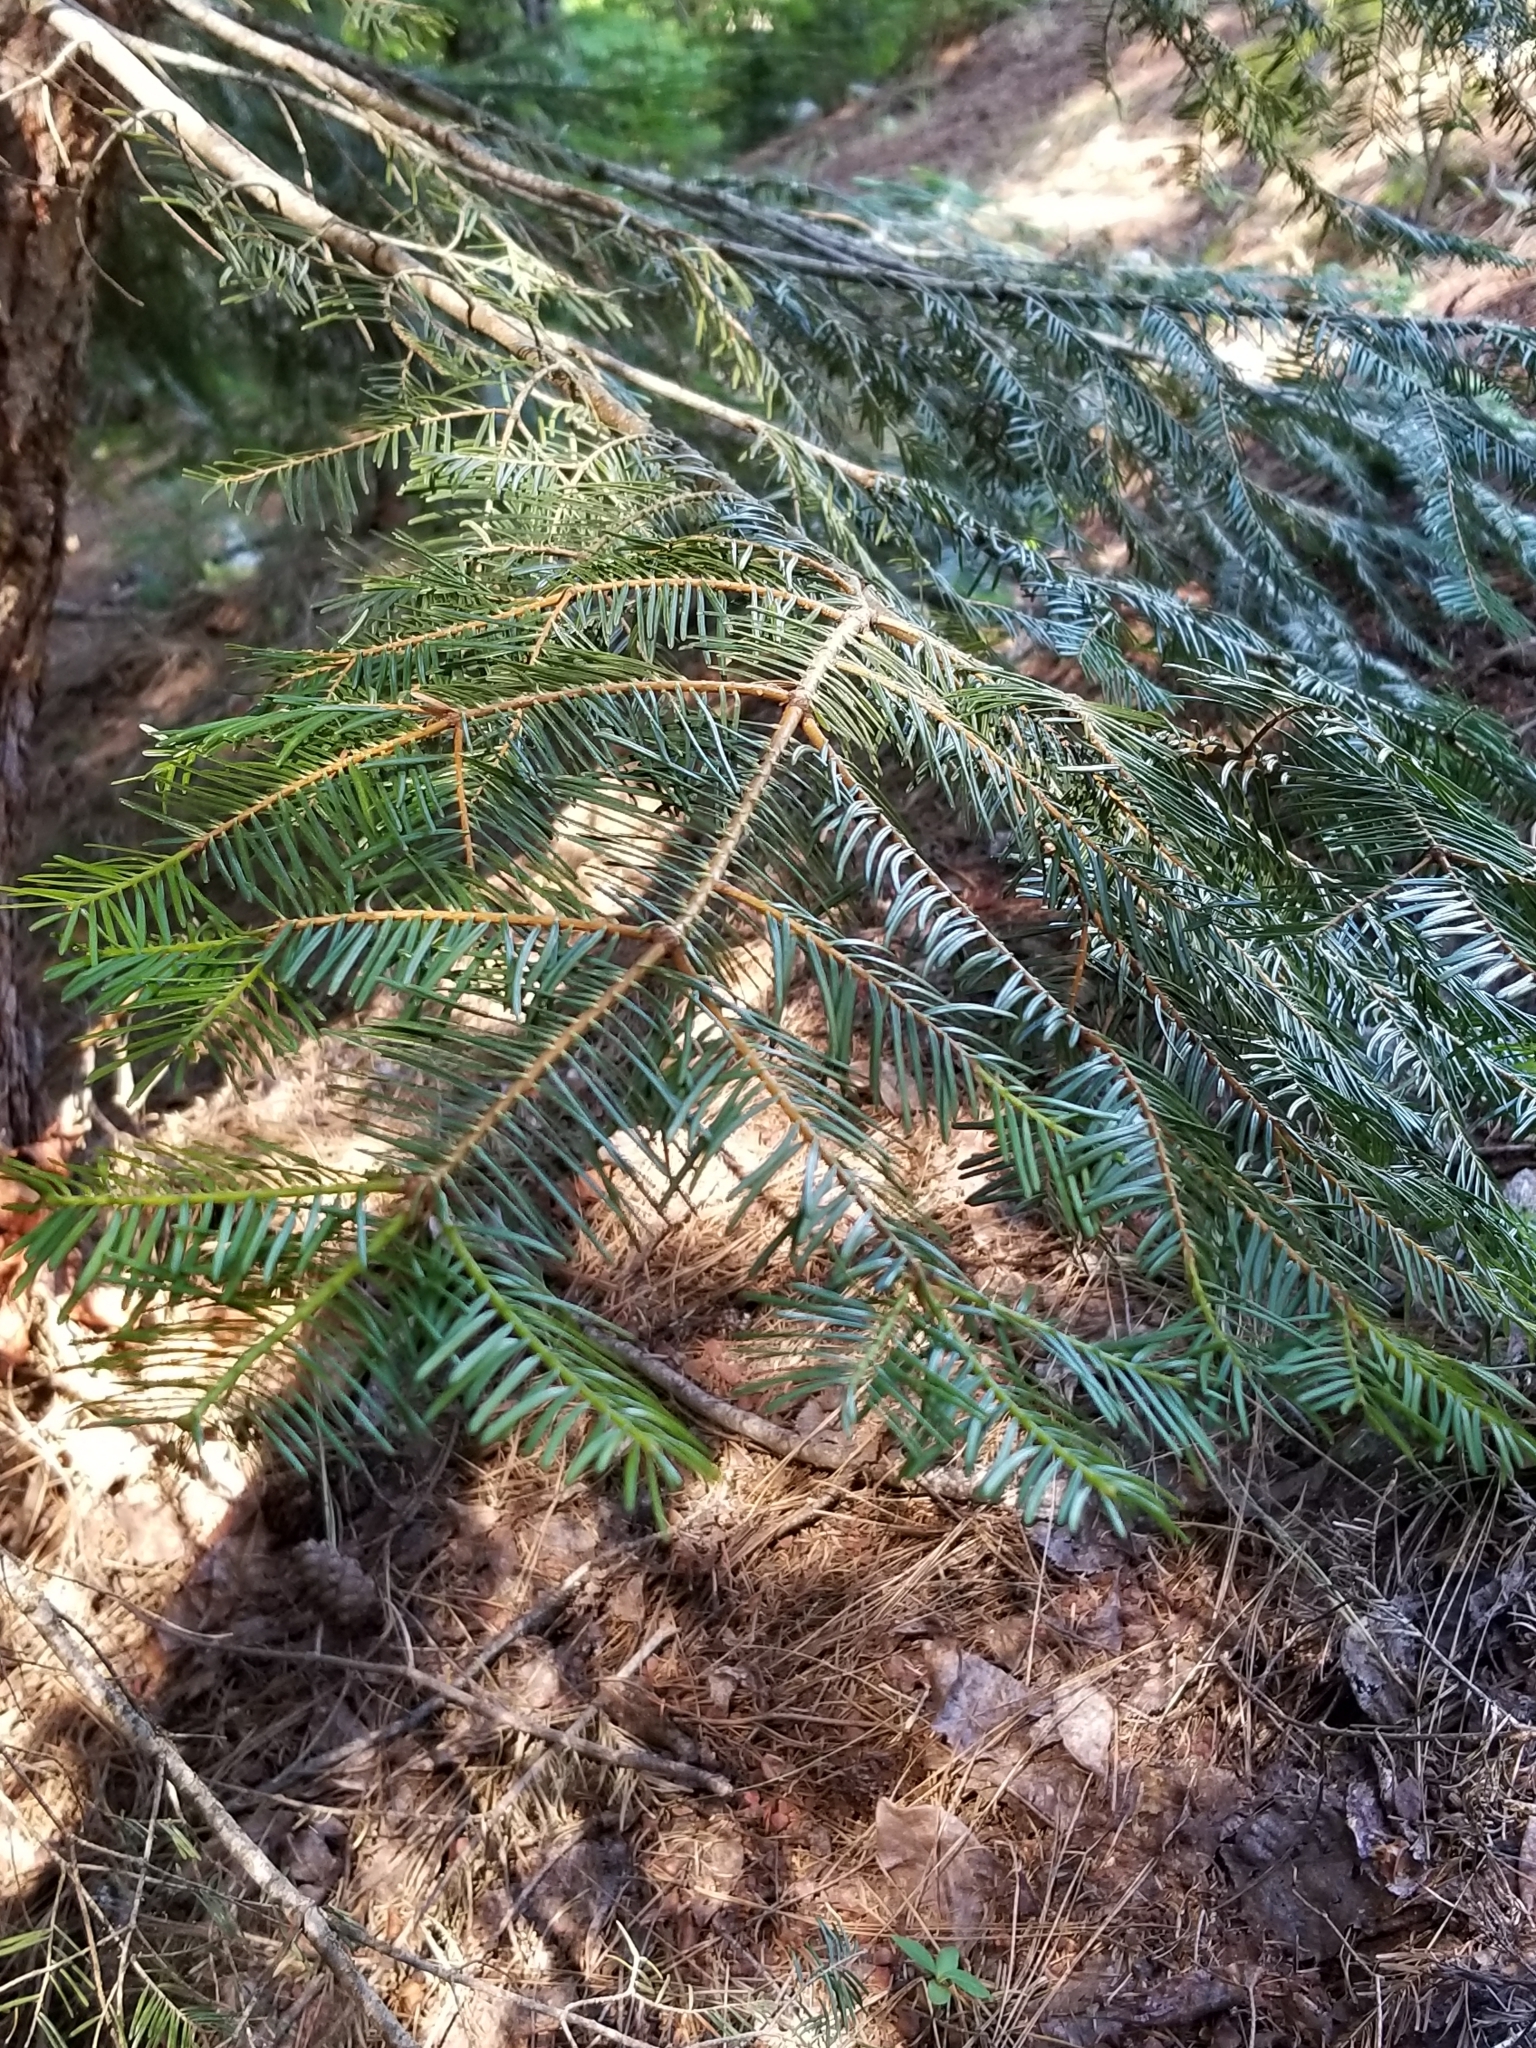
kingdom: Plantae
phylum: Tracheophyta
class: Pinopsida
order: Pinales
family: Pinaceae
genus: Abies
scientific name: Abies grandis
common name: Giant fir
